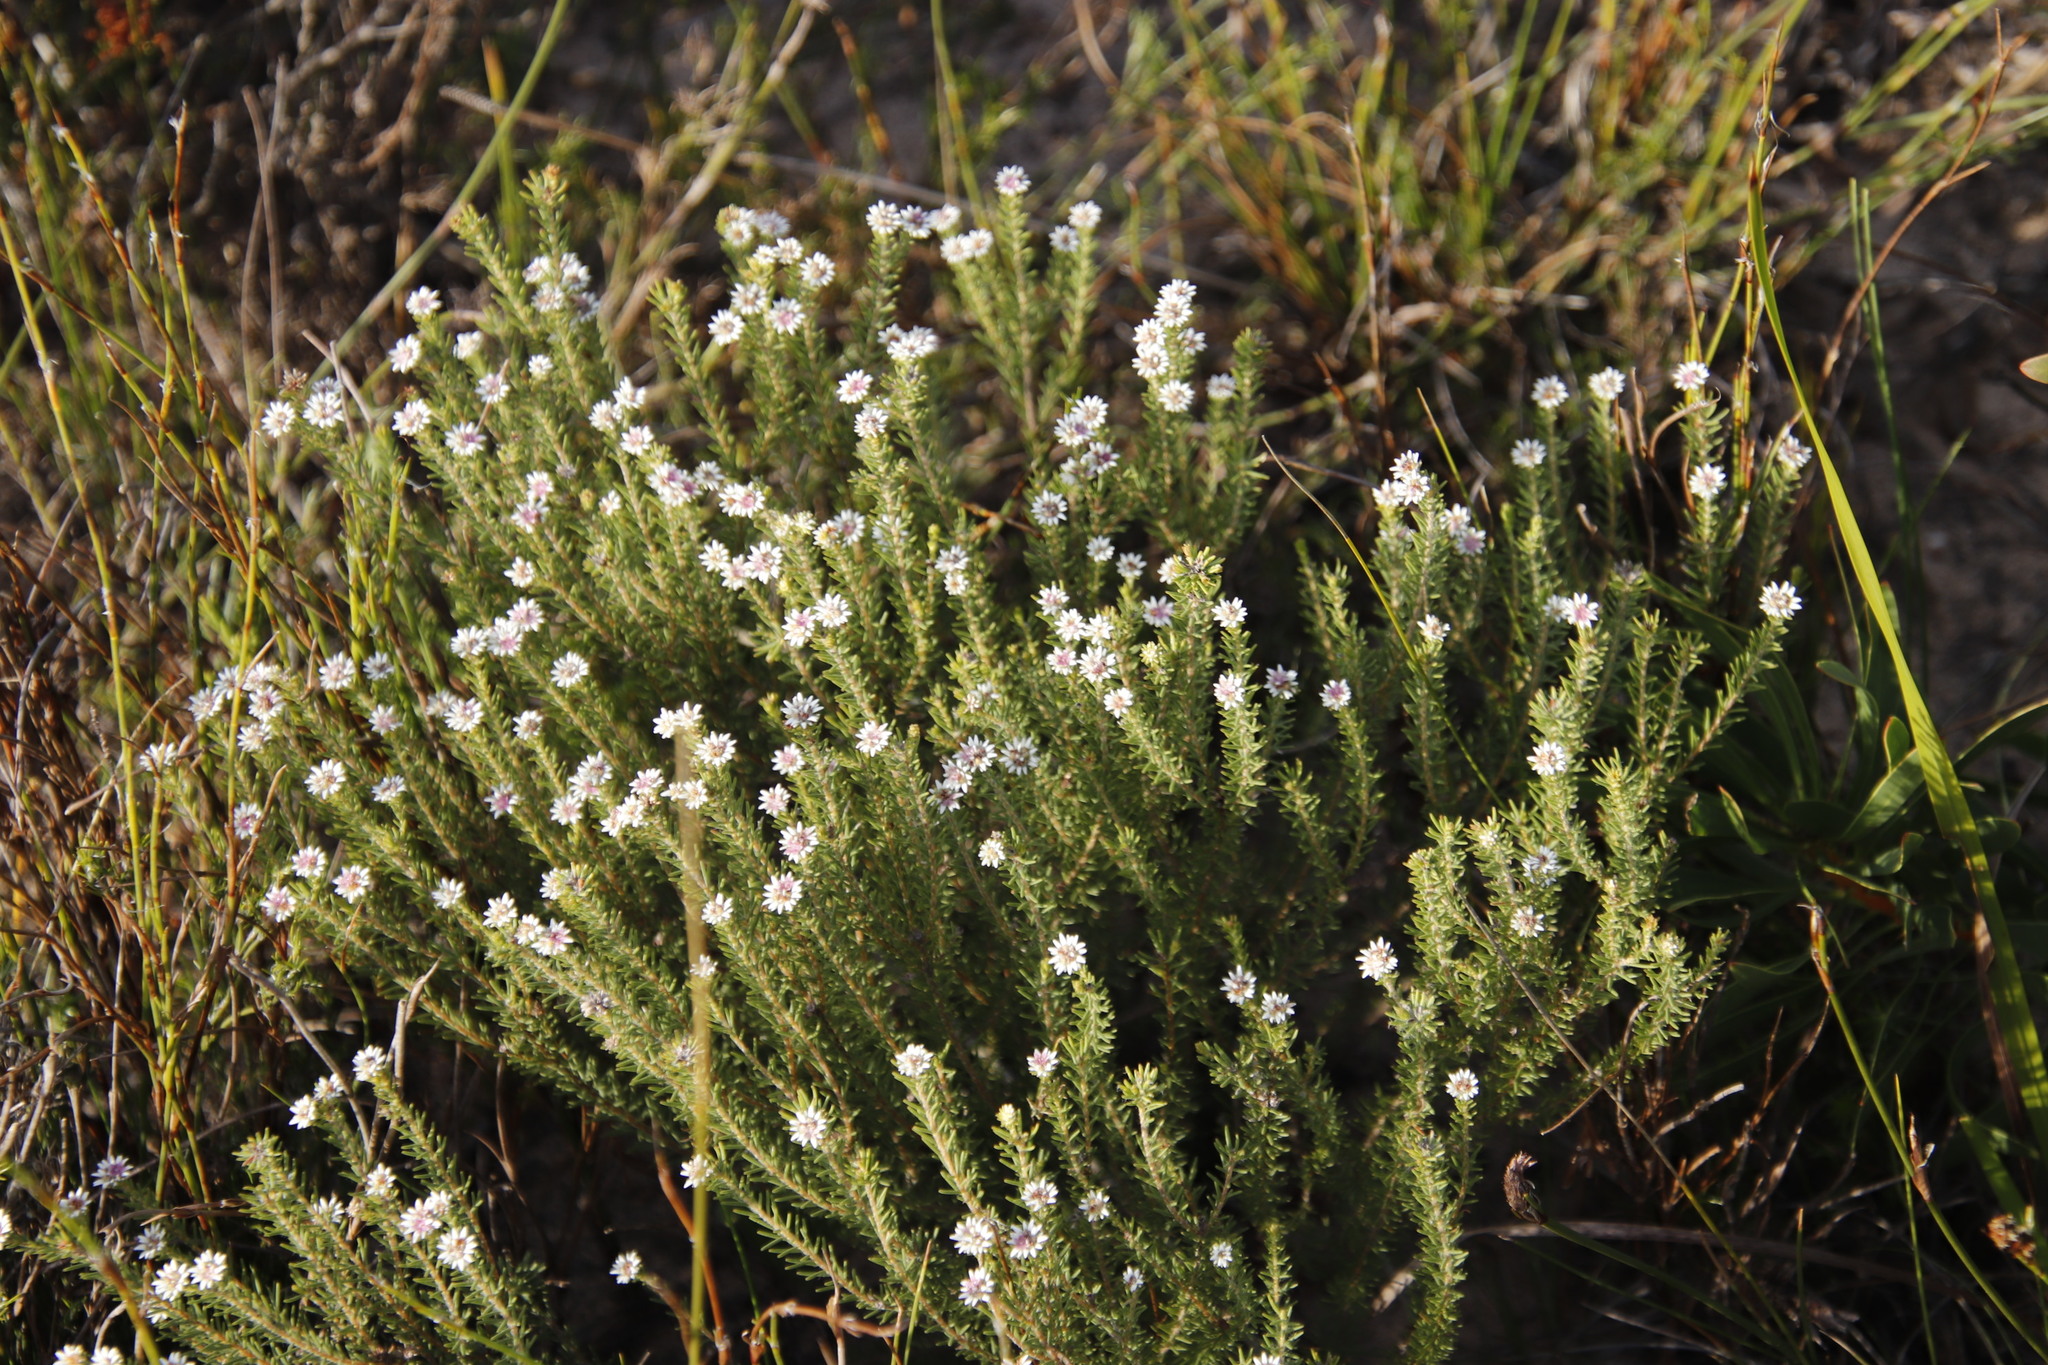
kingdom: Plantae
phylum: Tracheophyta
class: Magnoliopsida
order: Bruniales
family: Bruniaceae
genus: Staavia
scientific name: Staavia radiata
